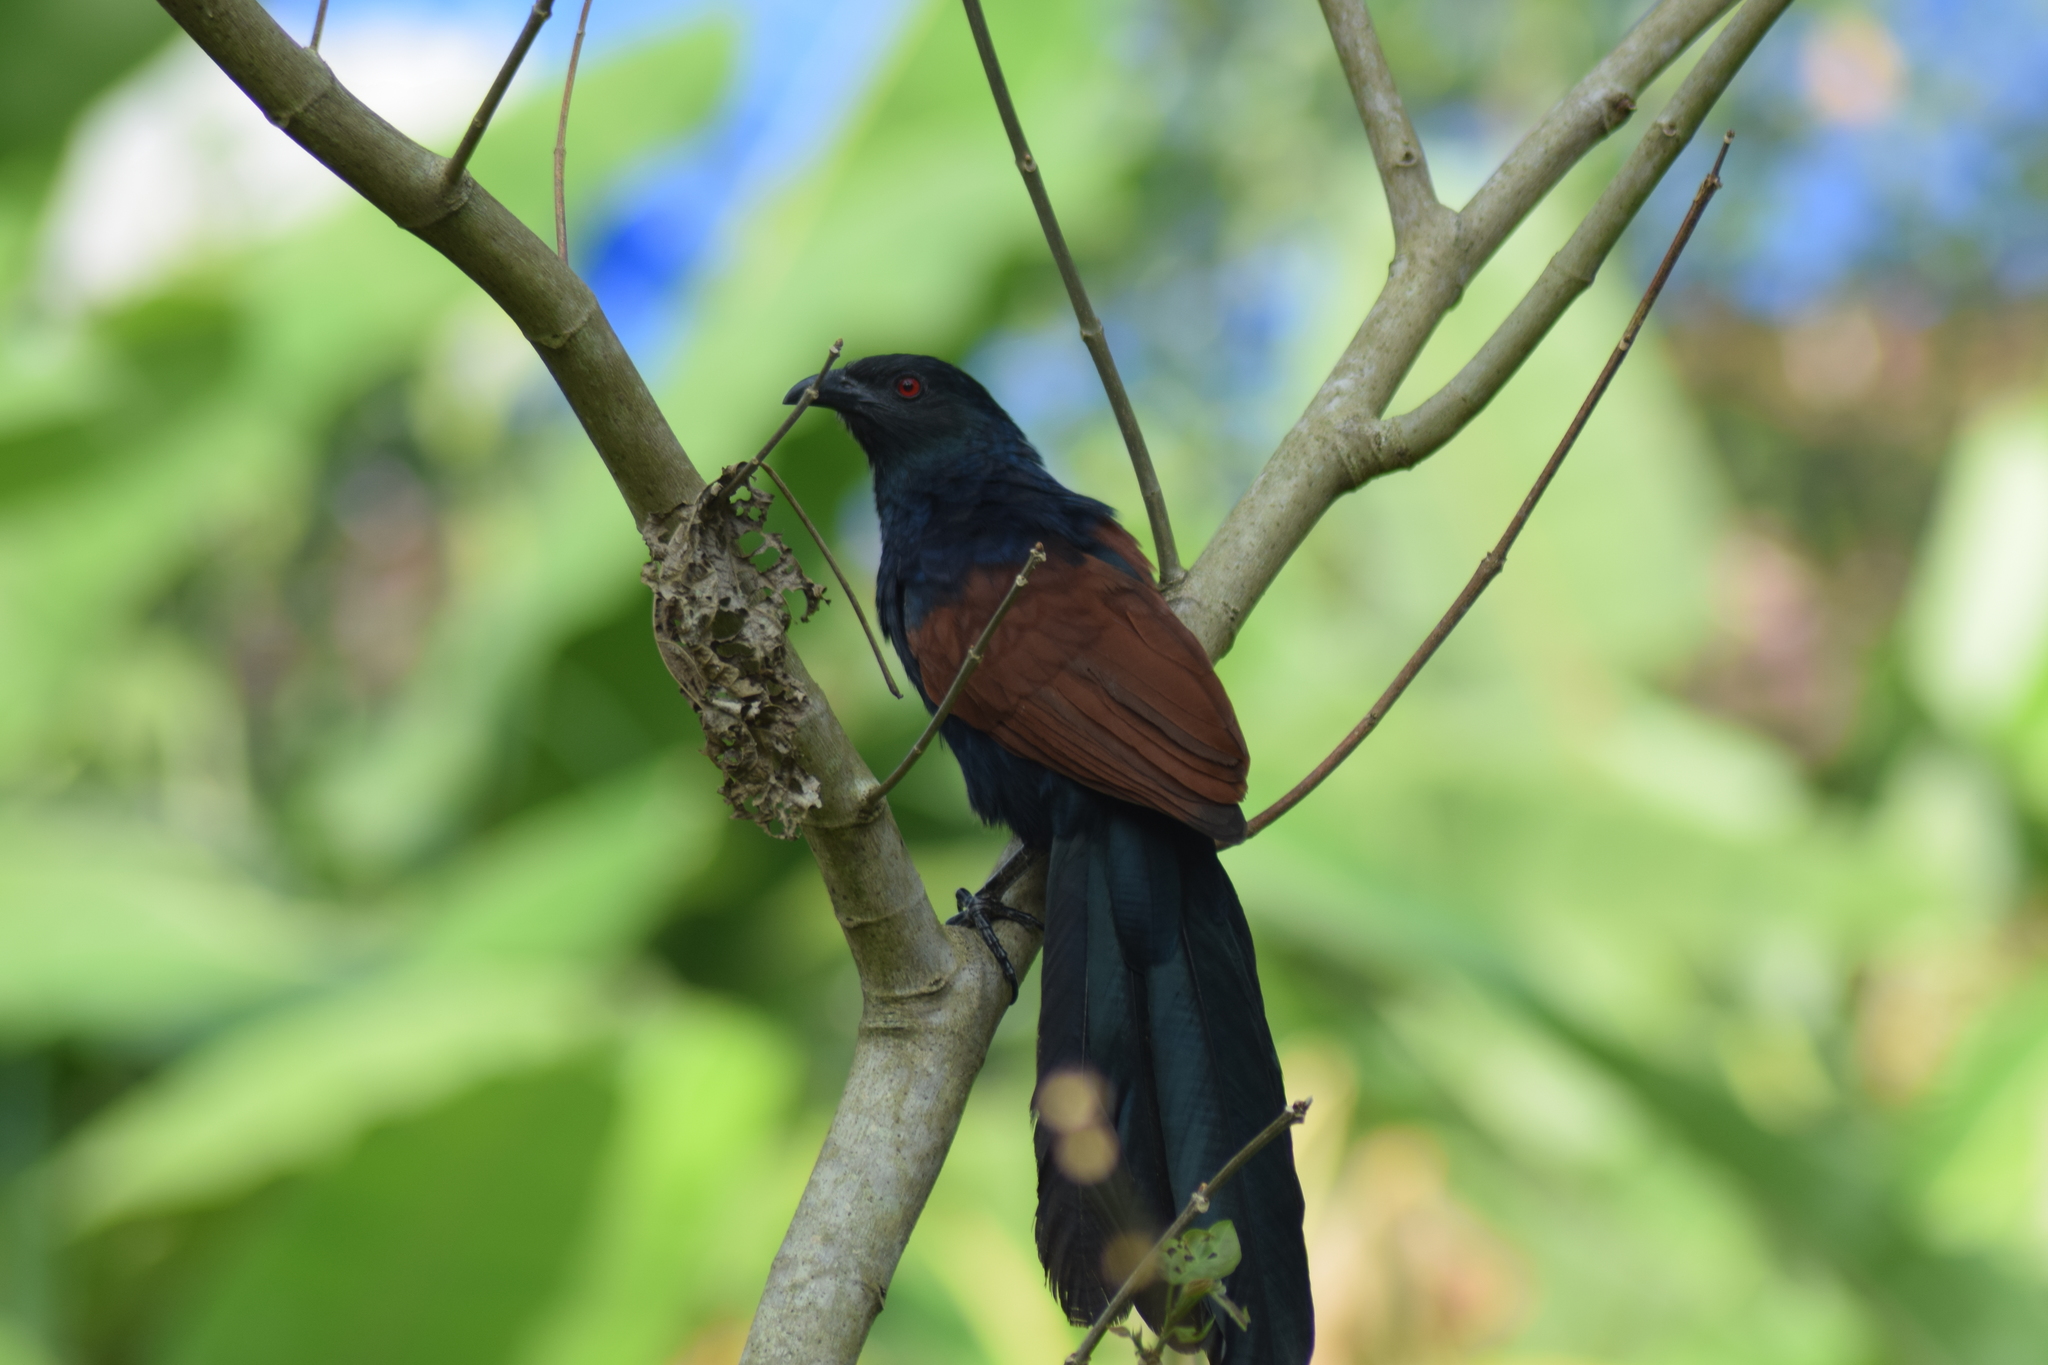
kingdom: Animalia
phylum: Chordata
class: Aves
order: Cuculiformes
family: Cuculidae
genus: Centropus
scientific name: Centropus sinensis
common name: Greater coucal
